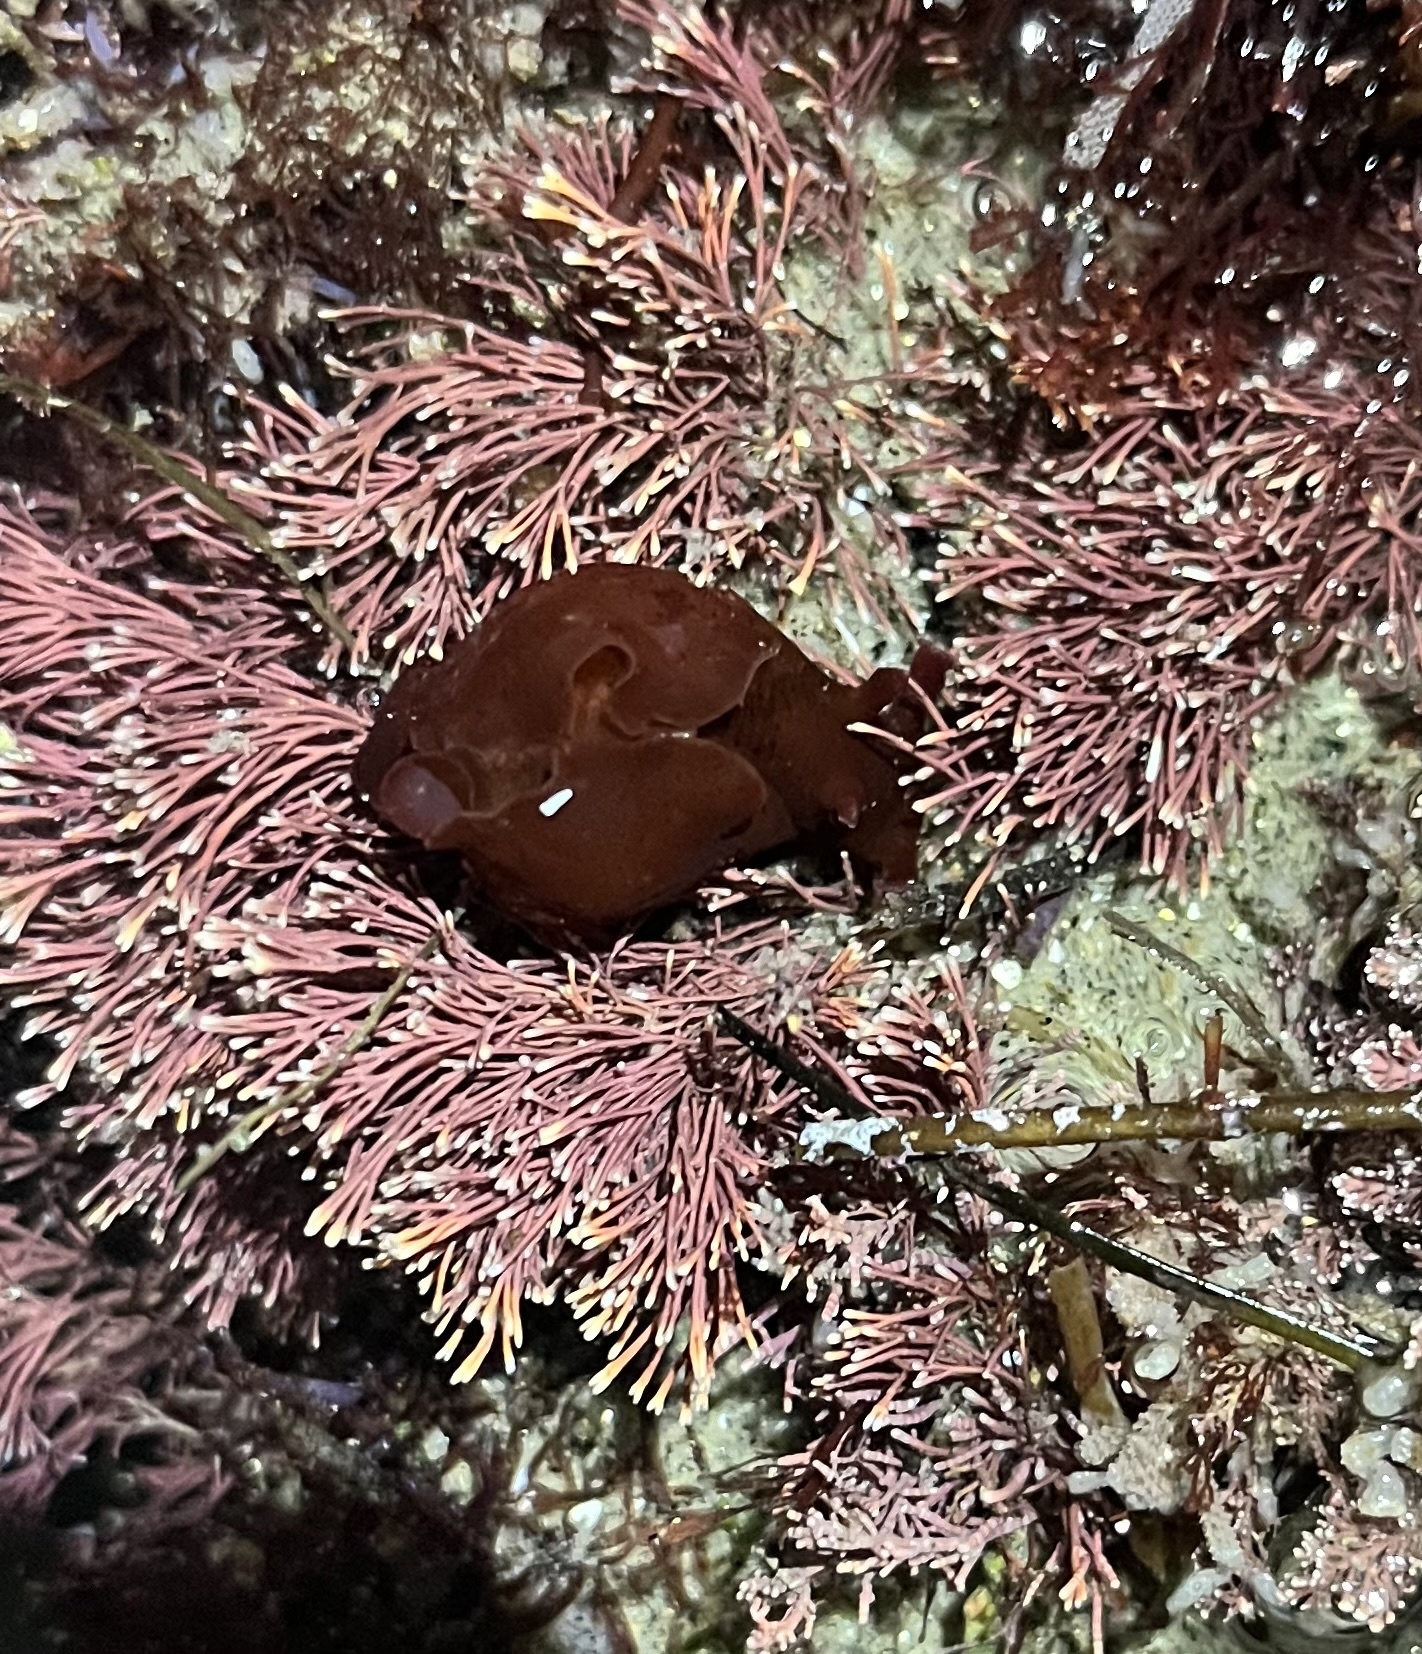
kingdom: Animalia
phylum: Mollusca
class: Gastropoda
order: Aplysiida
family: Aplysiidae
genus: Aplysia
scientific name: Aplysia californica
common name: California seahare
